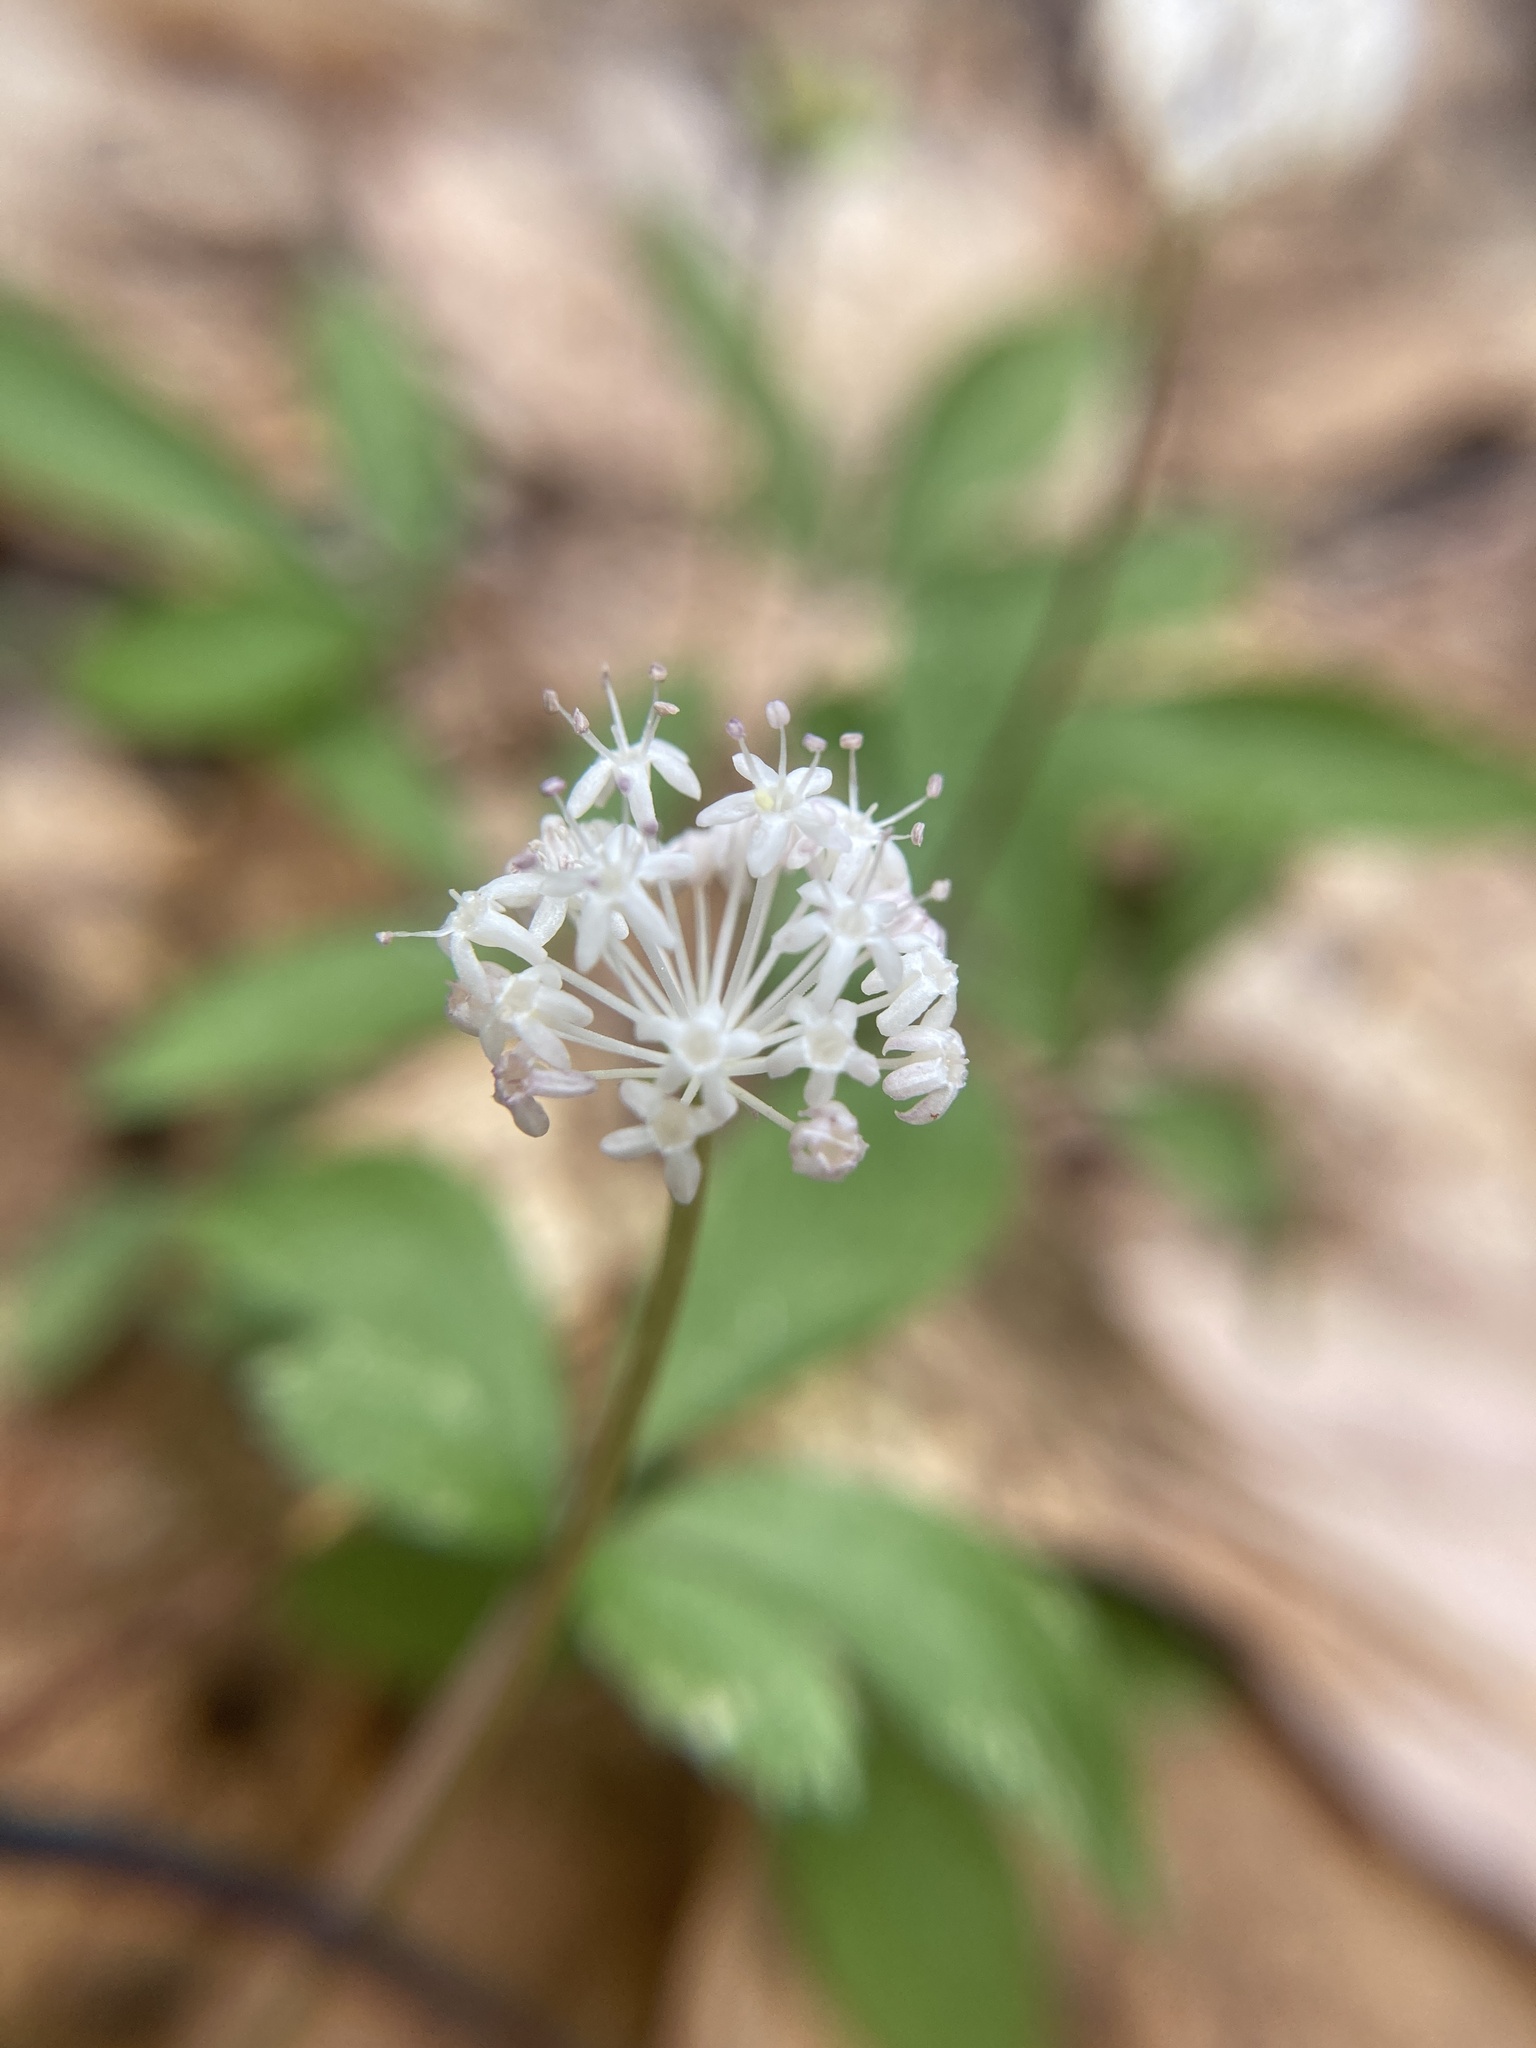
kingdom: Plantae
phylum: Tracheophyta
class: Magnoliopsida
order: Apiales
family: Araliaceae
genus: Panax
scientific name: Panax trifolius
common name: Dwarf ginseng
